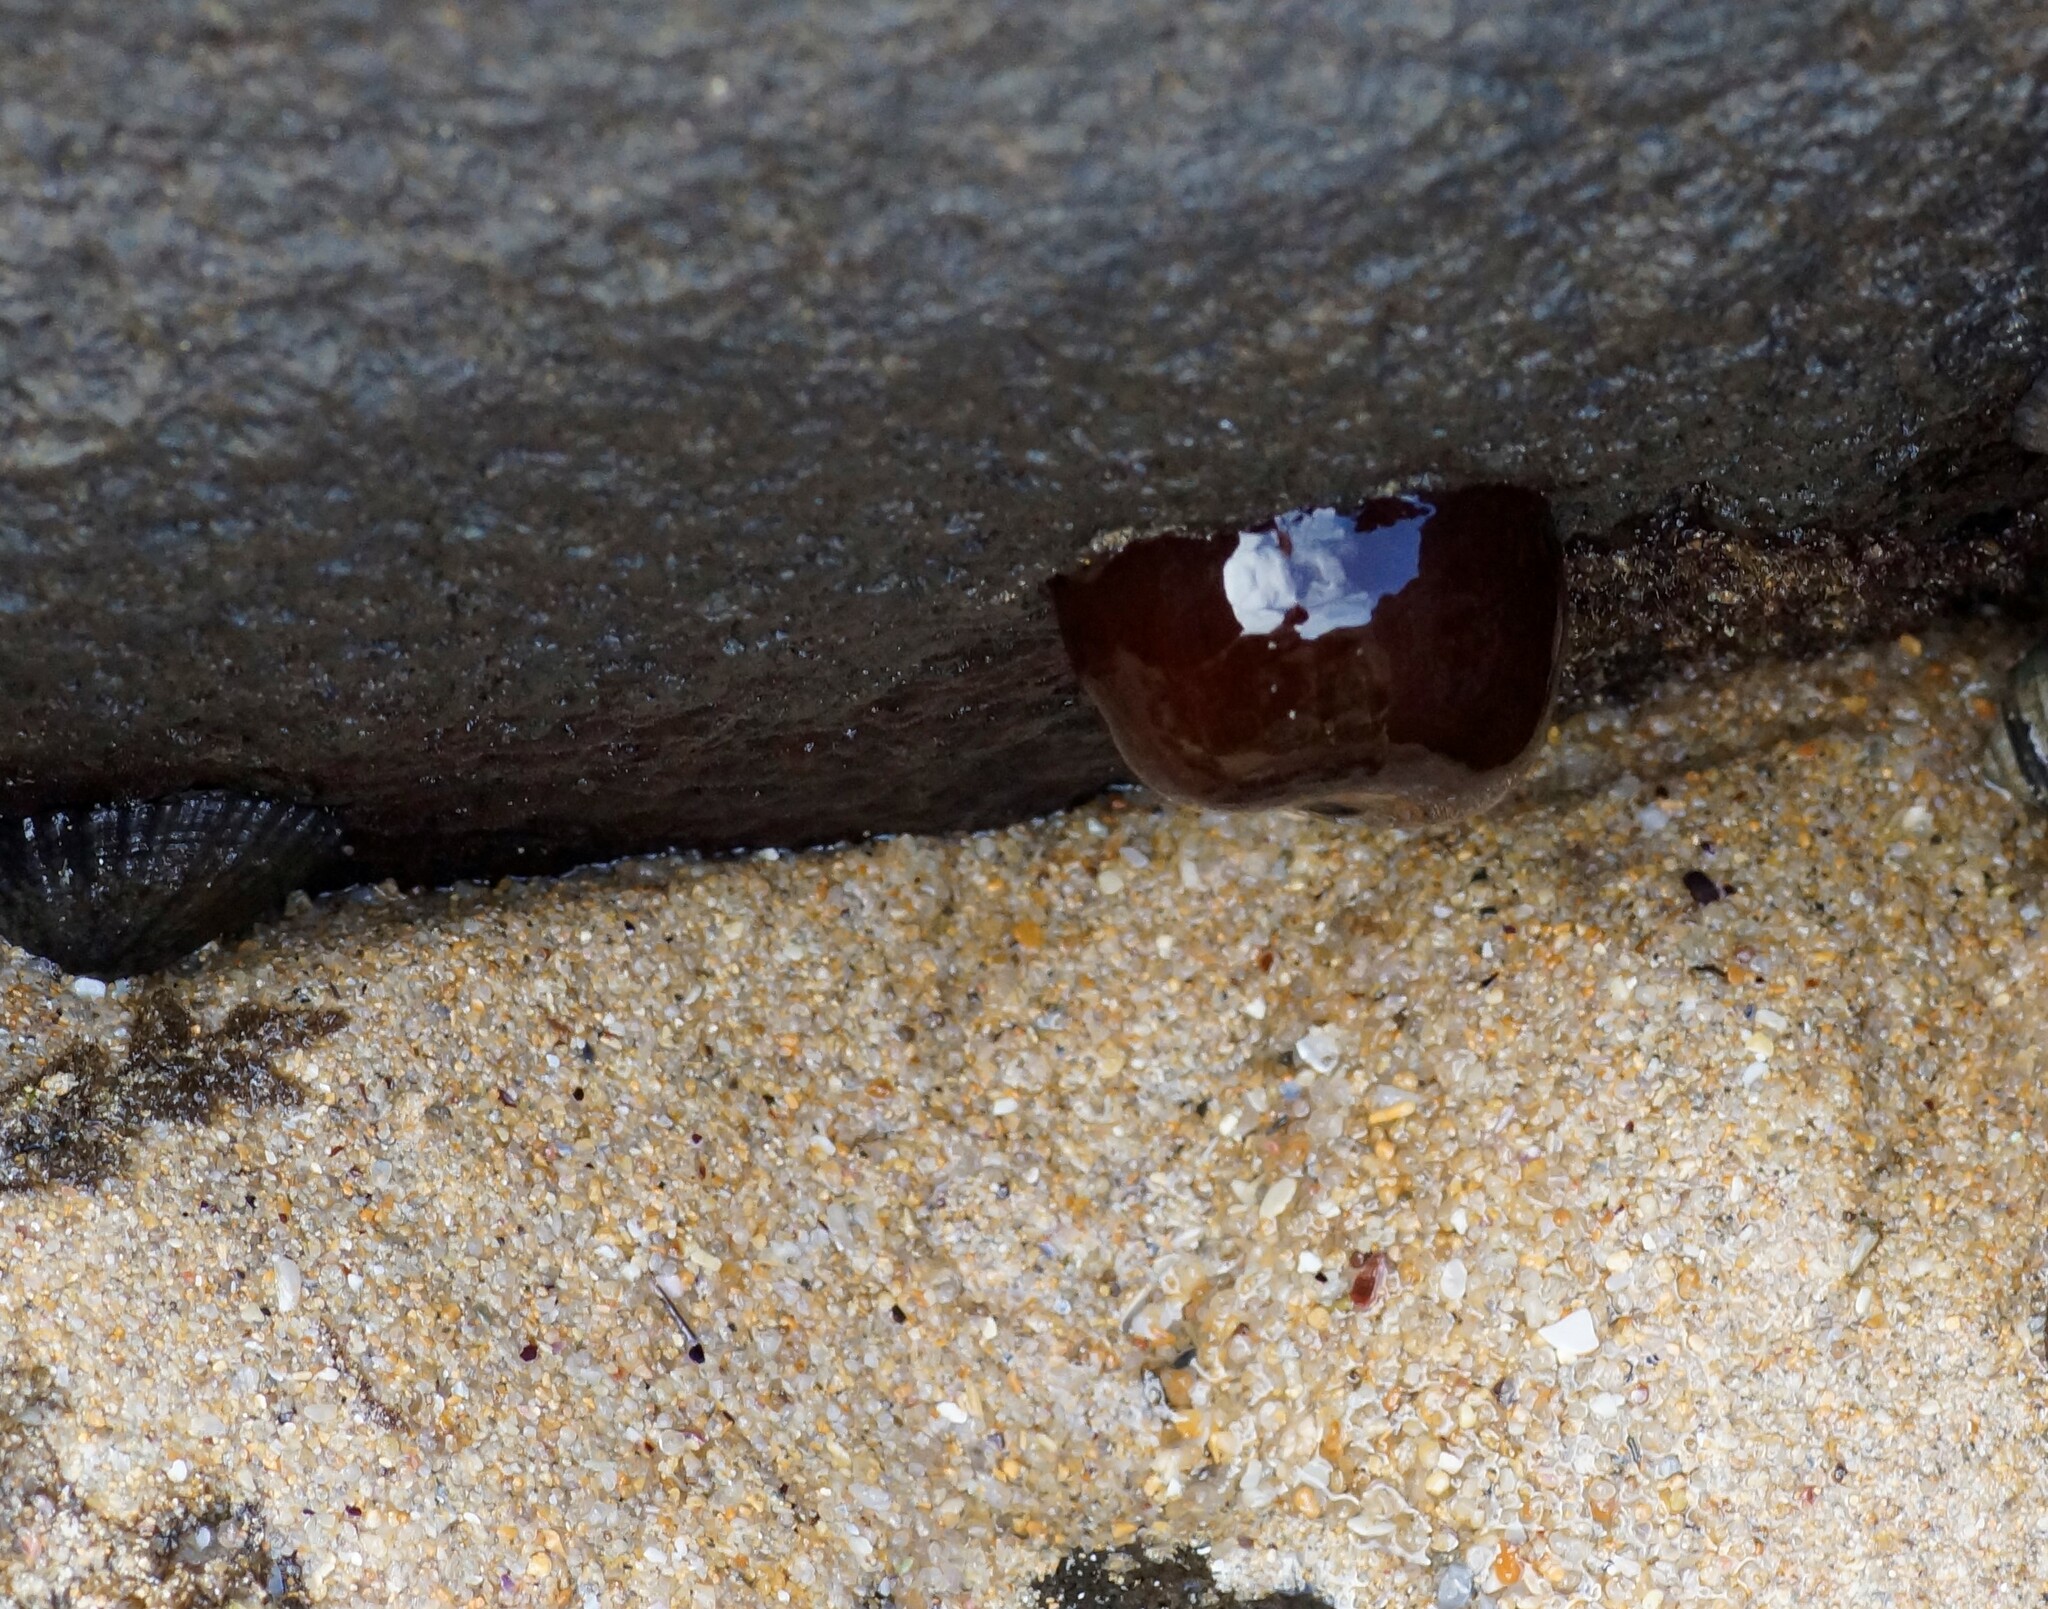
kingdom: Animalia
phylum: Cnidaria
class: Anthozoa
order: Actiniaria
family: Actiniidae
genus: Actinia
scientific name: Actinia tenebrosa
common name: Waratah anemone
